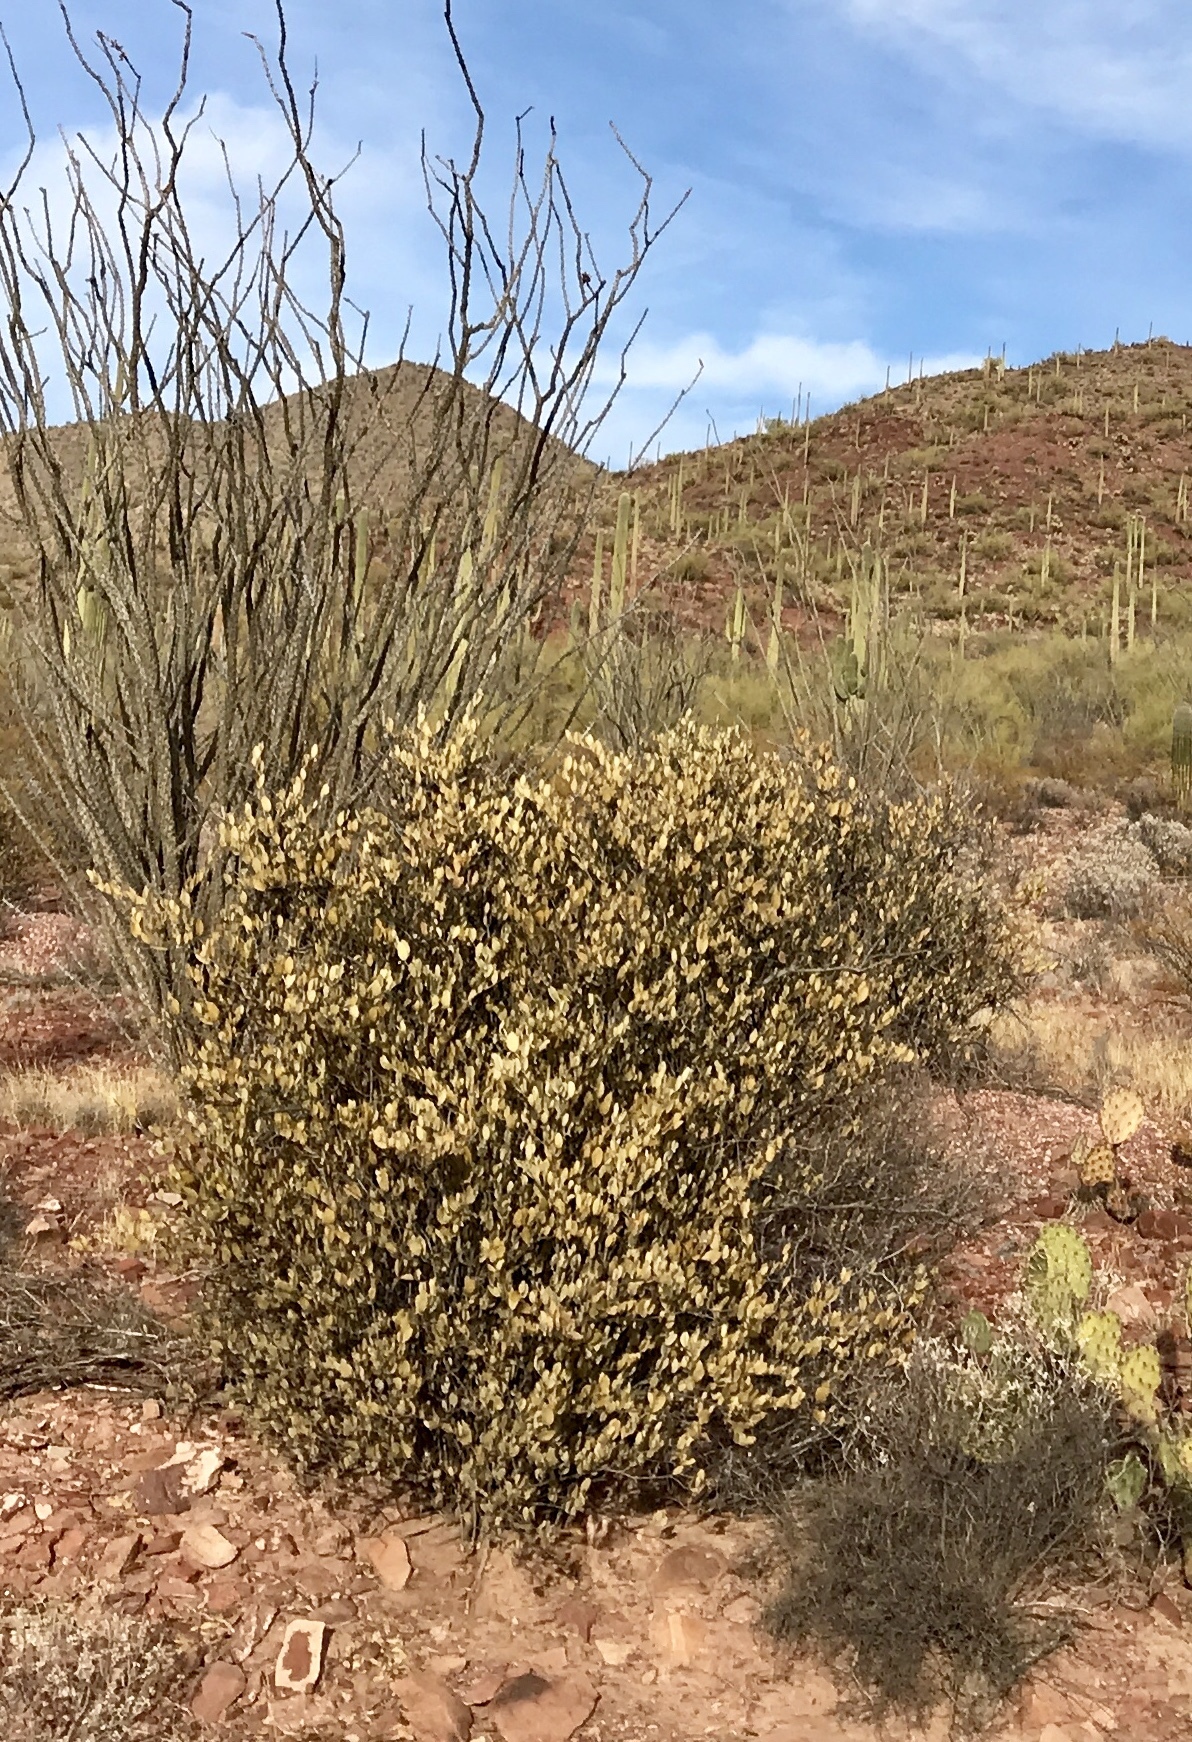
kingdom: Plantae
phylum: Tracheophyta
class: Magnoliopsida
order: Caryophyllales
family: Simmondsiaceae
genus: Simmondsia
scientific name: Simmondsia chinensis
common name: Jojoba
